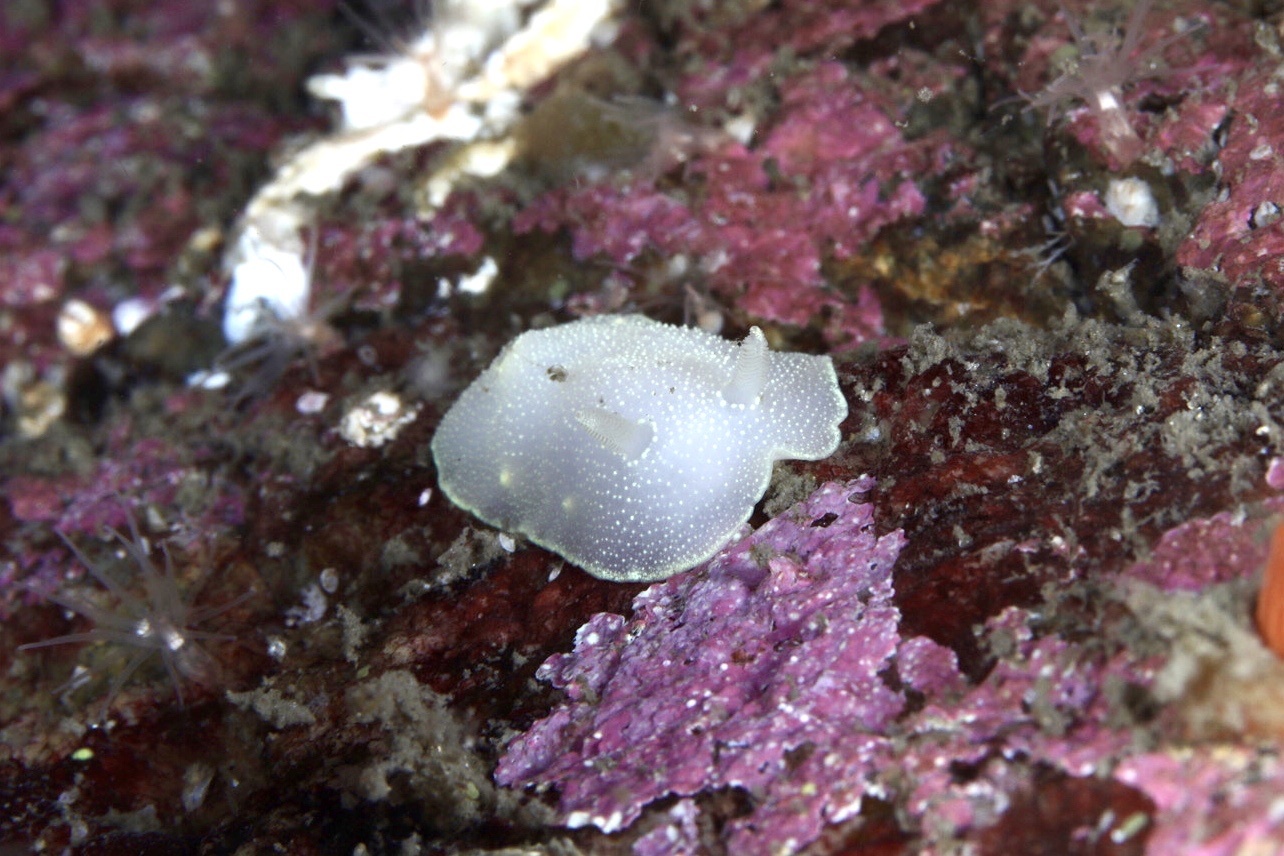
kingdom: Animalia
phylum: Mollusca
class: Gastropoda
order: Nudibranchia
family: Cadlinidae
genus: Cadlina
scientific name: Cadlina laevis
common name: White atlantic cadlina
